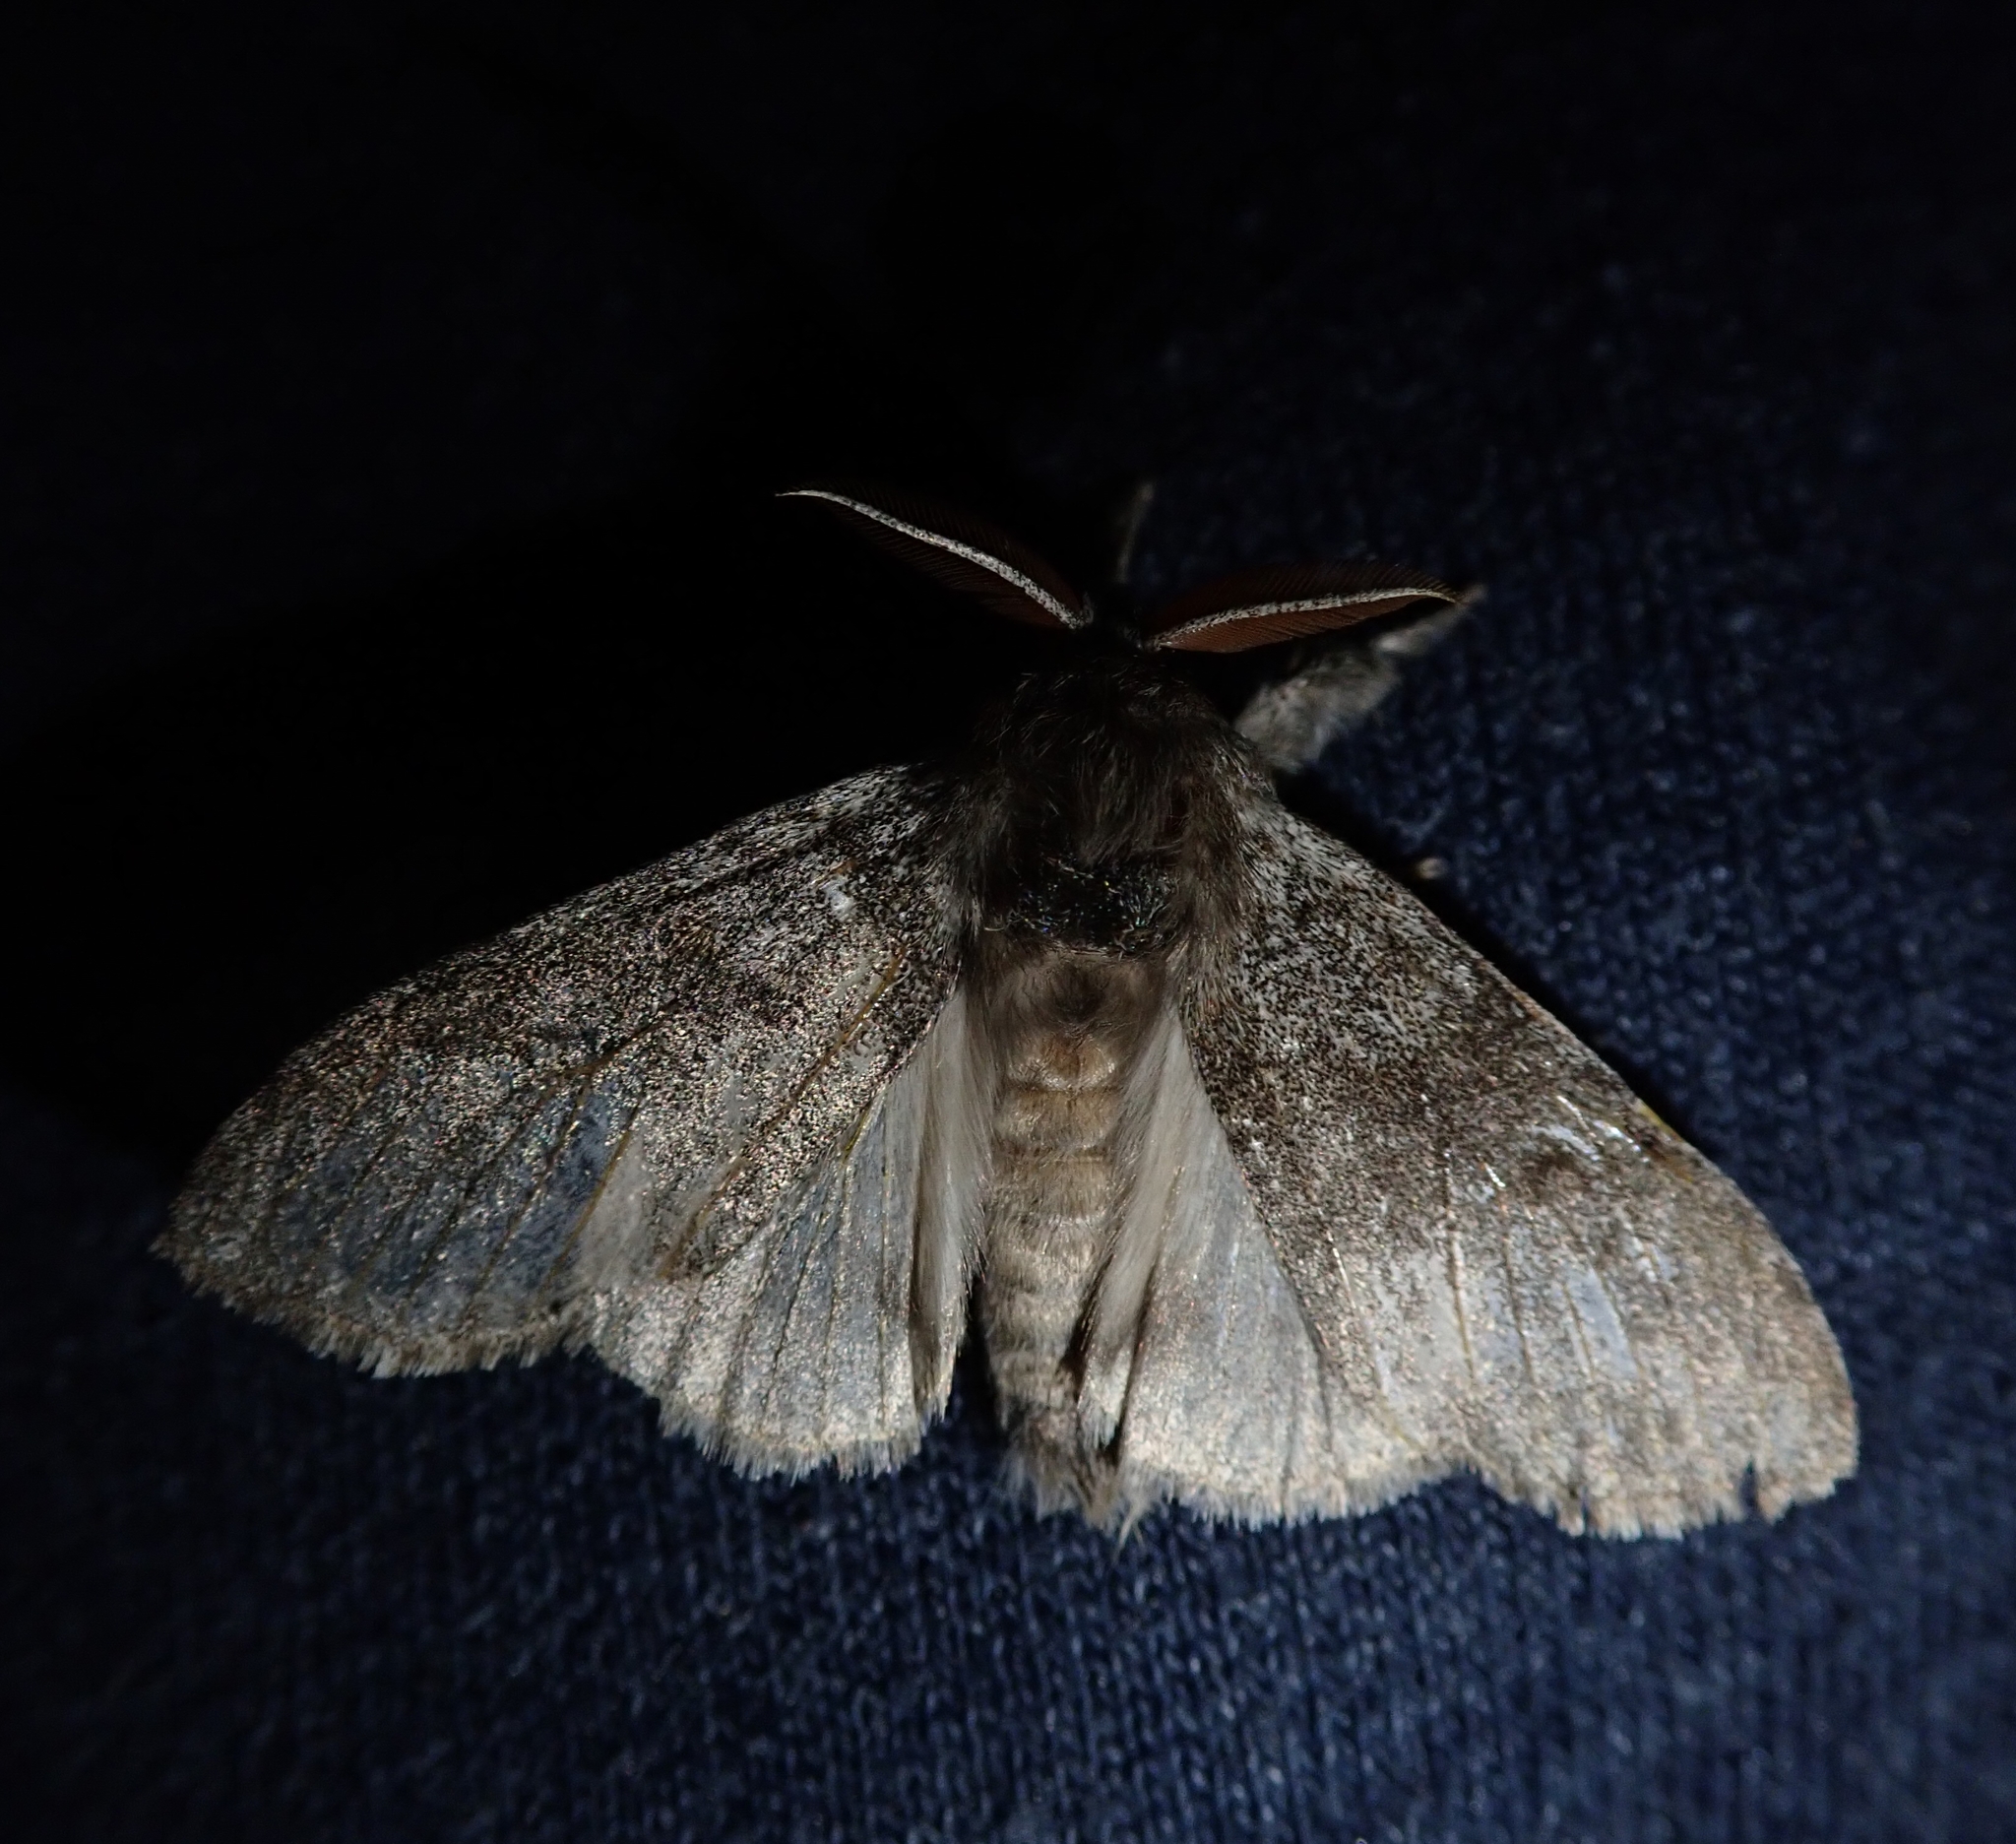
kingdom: Animalia
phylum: Arthropoda
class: Insecta
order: Lepidoptera
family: Erebidae
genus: Calliteara
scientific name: Calliteara pudibunda
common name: Pale tussock
